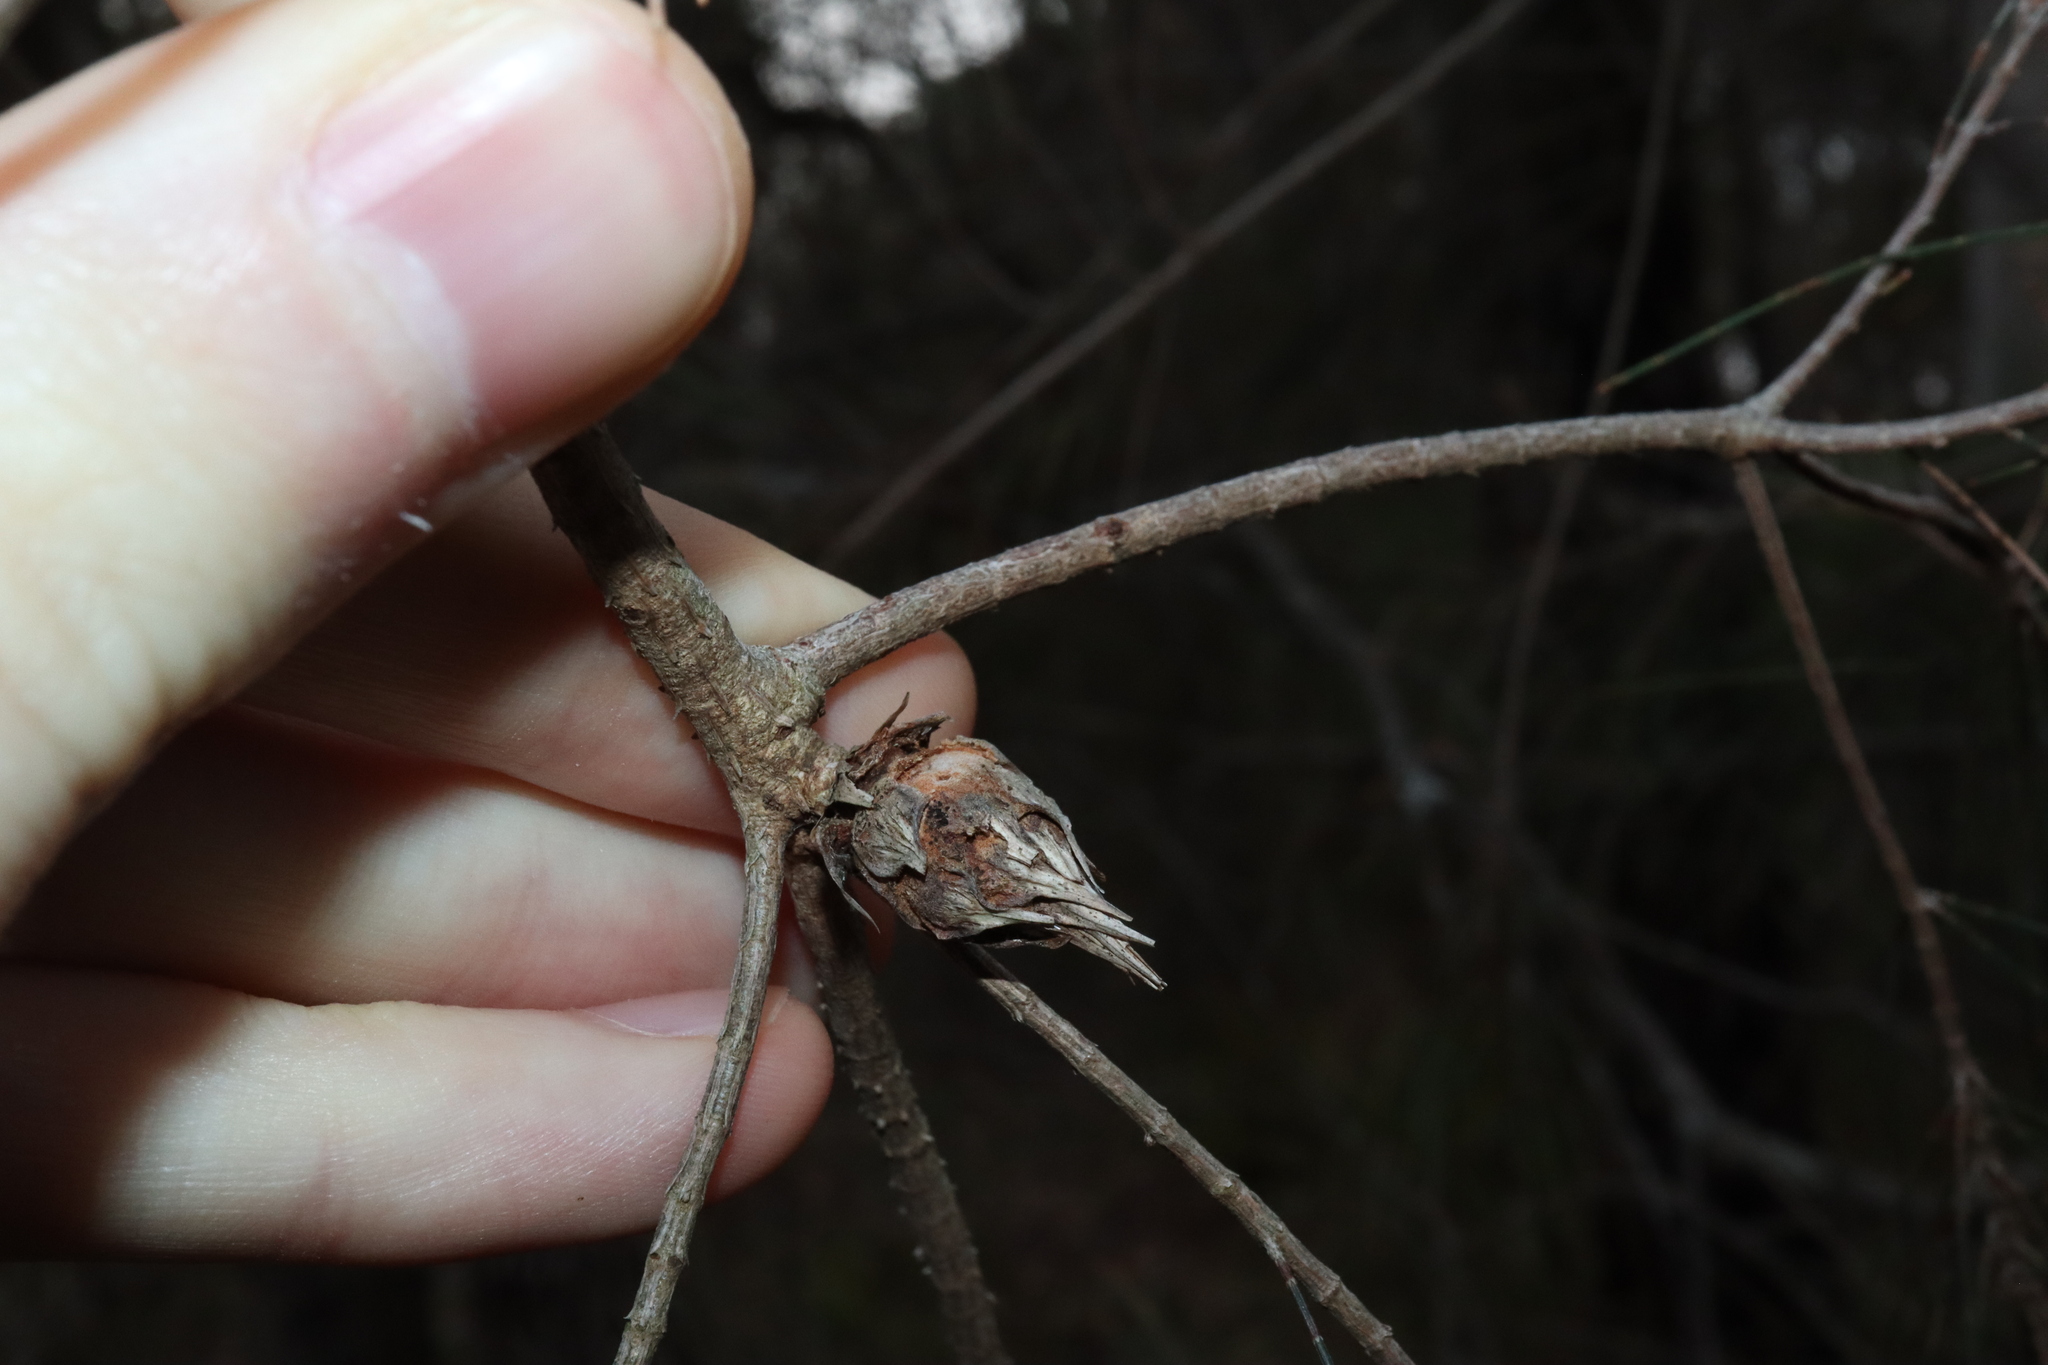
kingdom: Animalia
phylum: Arthropoda
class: Insecta
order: Hemiptera
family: Eriococcidae
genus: Cylindrococcus
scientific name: Cylindrococcus spiniferus
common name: Casuarina gall
